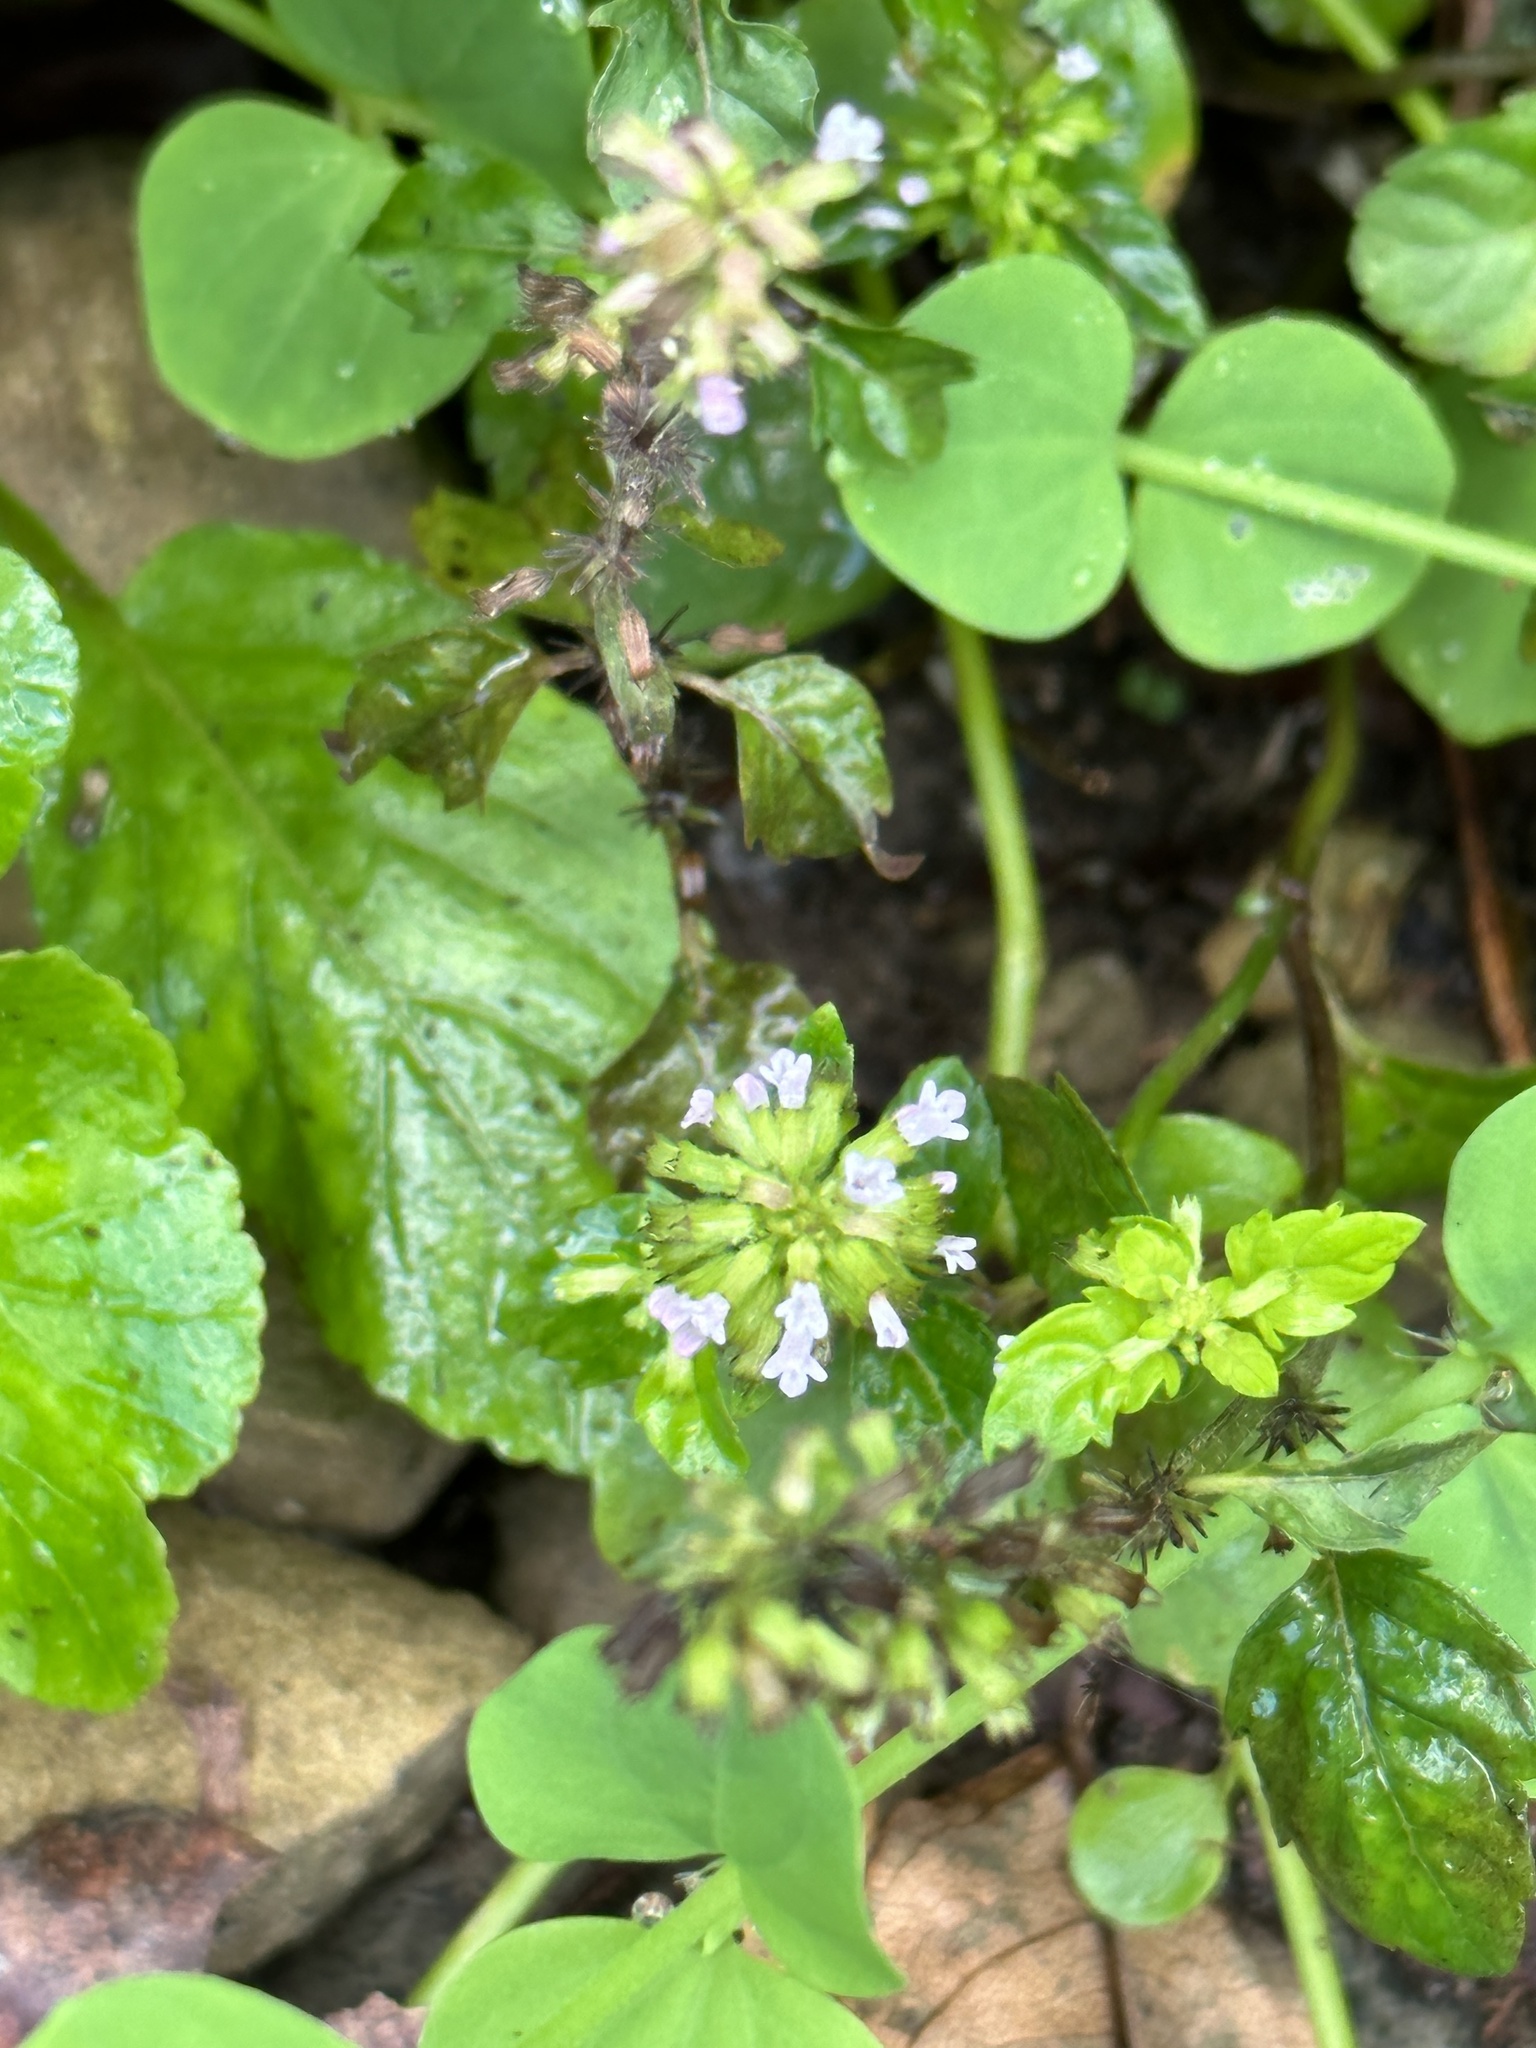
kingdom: Plantae
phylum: Tracheophyta
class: Magnoliopsida
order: Lamiales
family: Lamiaceae
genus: Clinopodium
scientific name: Clinopodium gracile
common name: Slender wild basil
